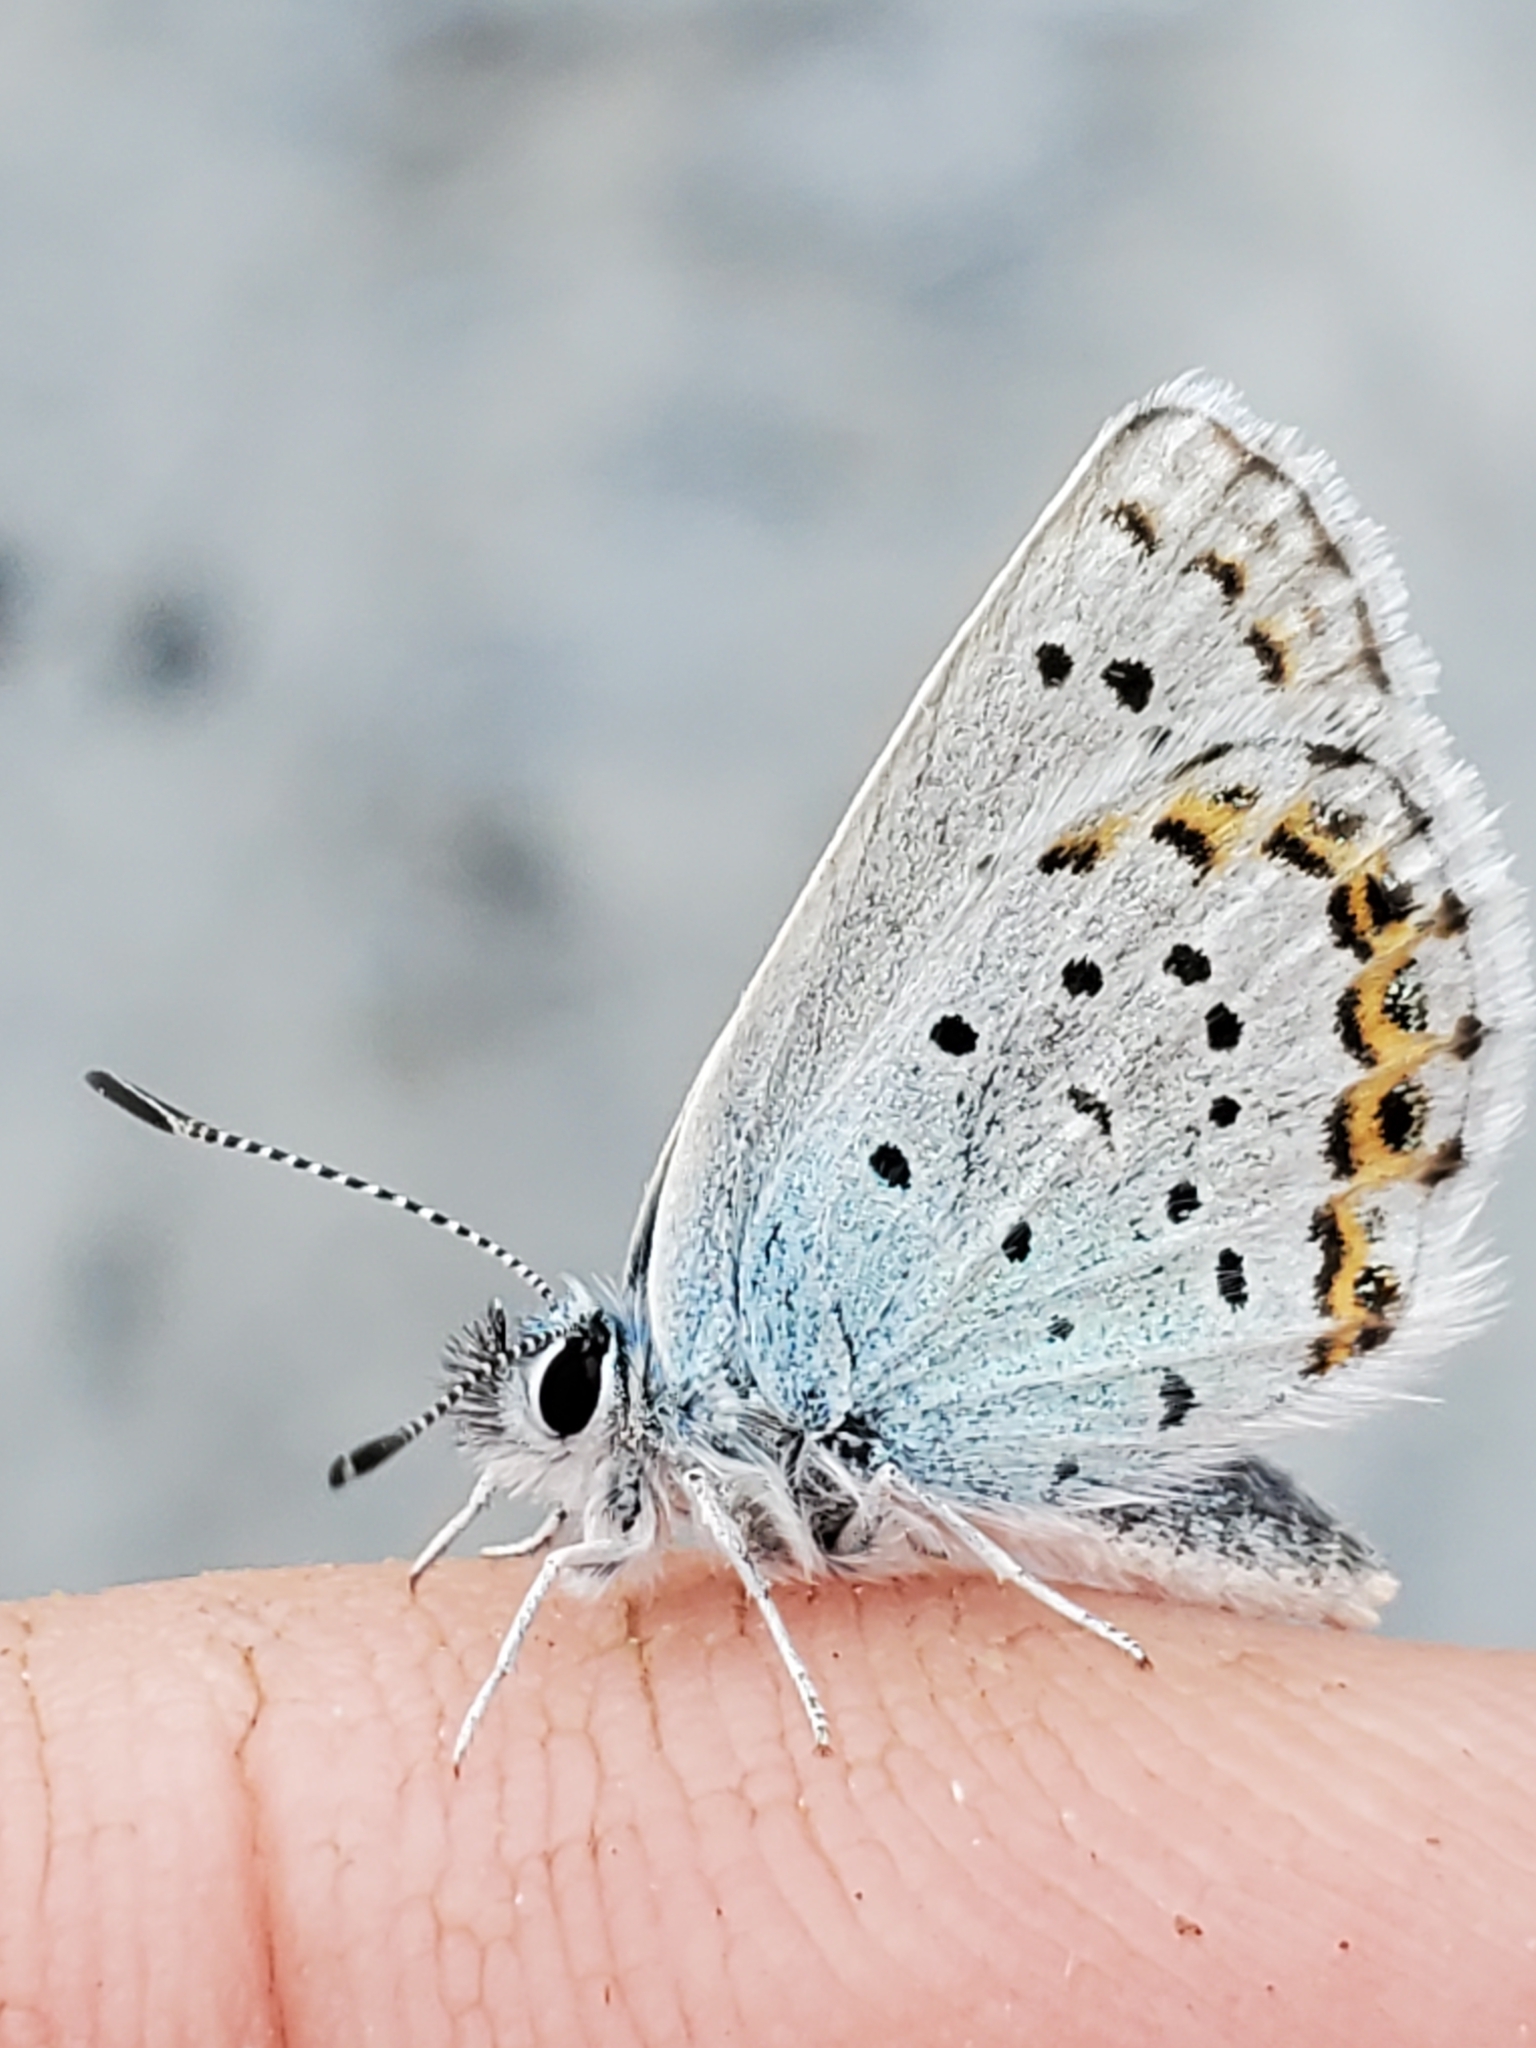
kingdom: Animalia
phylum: Arthropoda
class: Insecta
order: Lepidoptera
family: Lycaenidae
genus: Lycaeides
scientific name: Lycaeides anna
